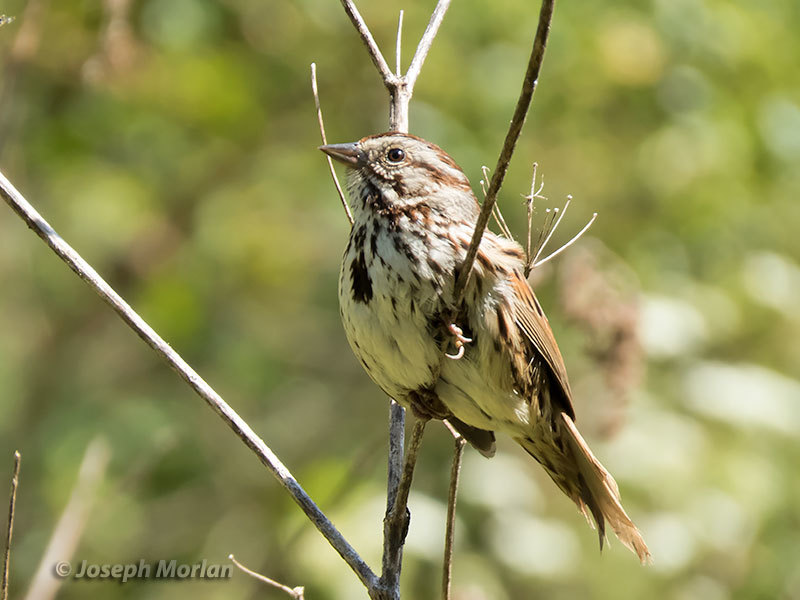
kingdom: Animalia
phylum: Chordata
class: Aves
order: Passeriformes
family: Passerellidae
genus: Melospiza
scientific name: Melospiza melodia
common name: Song sparrow
